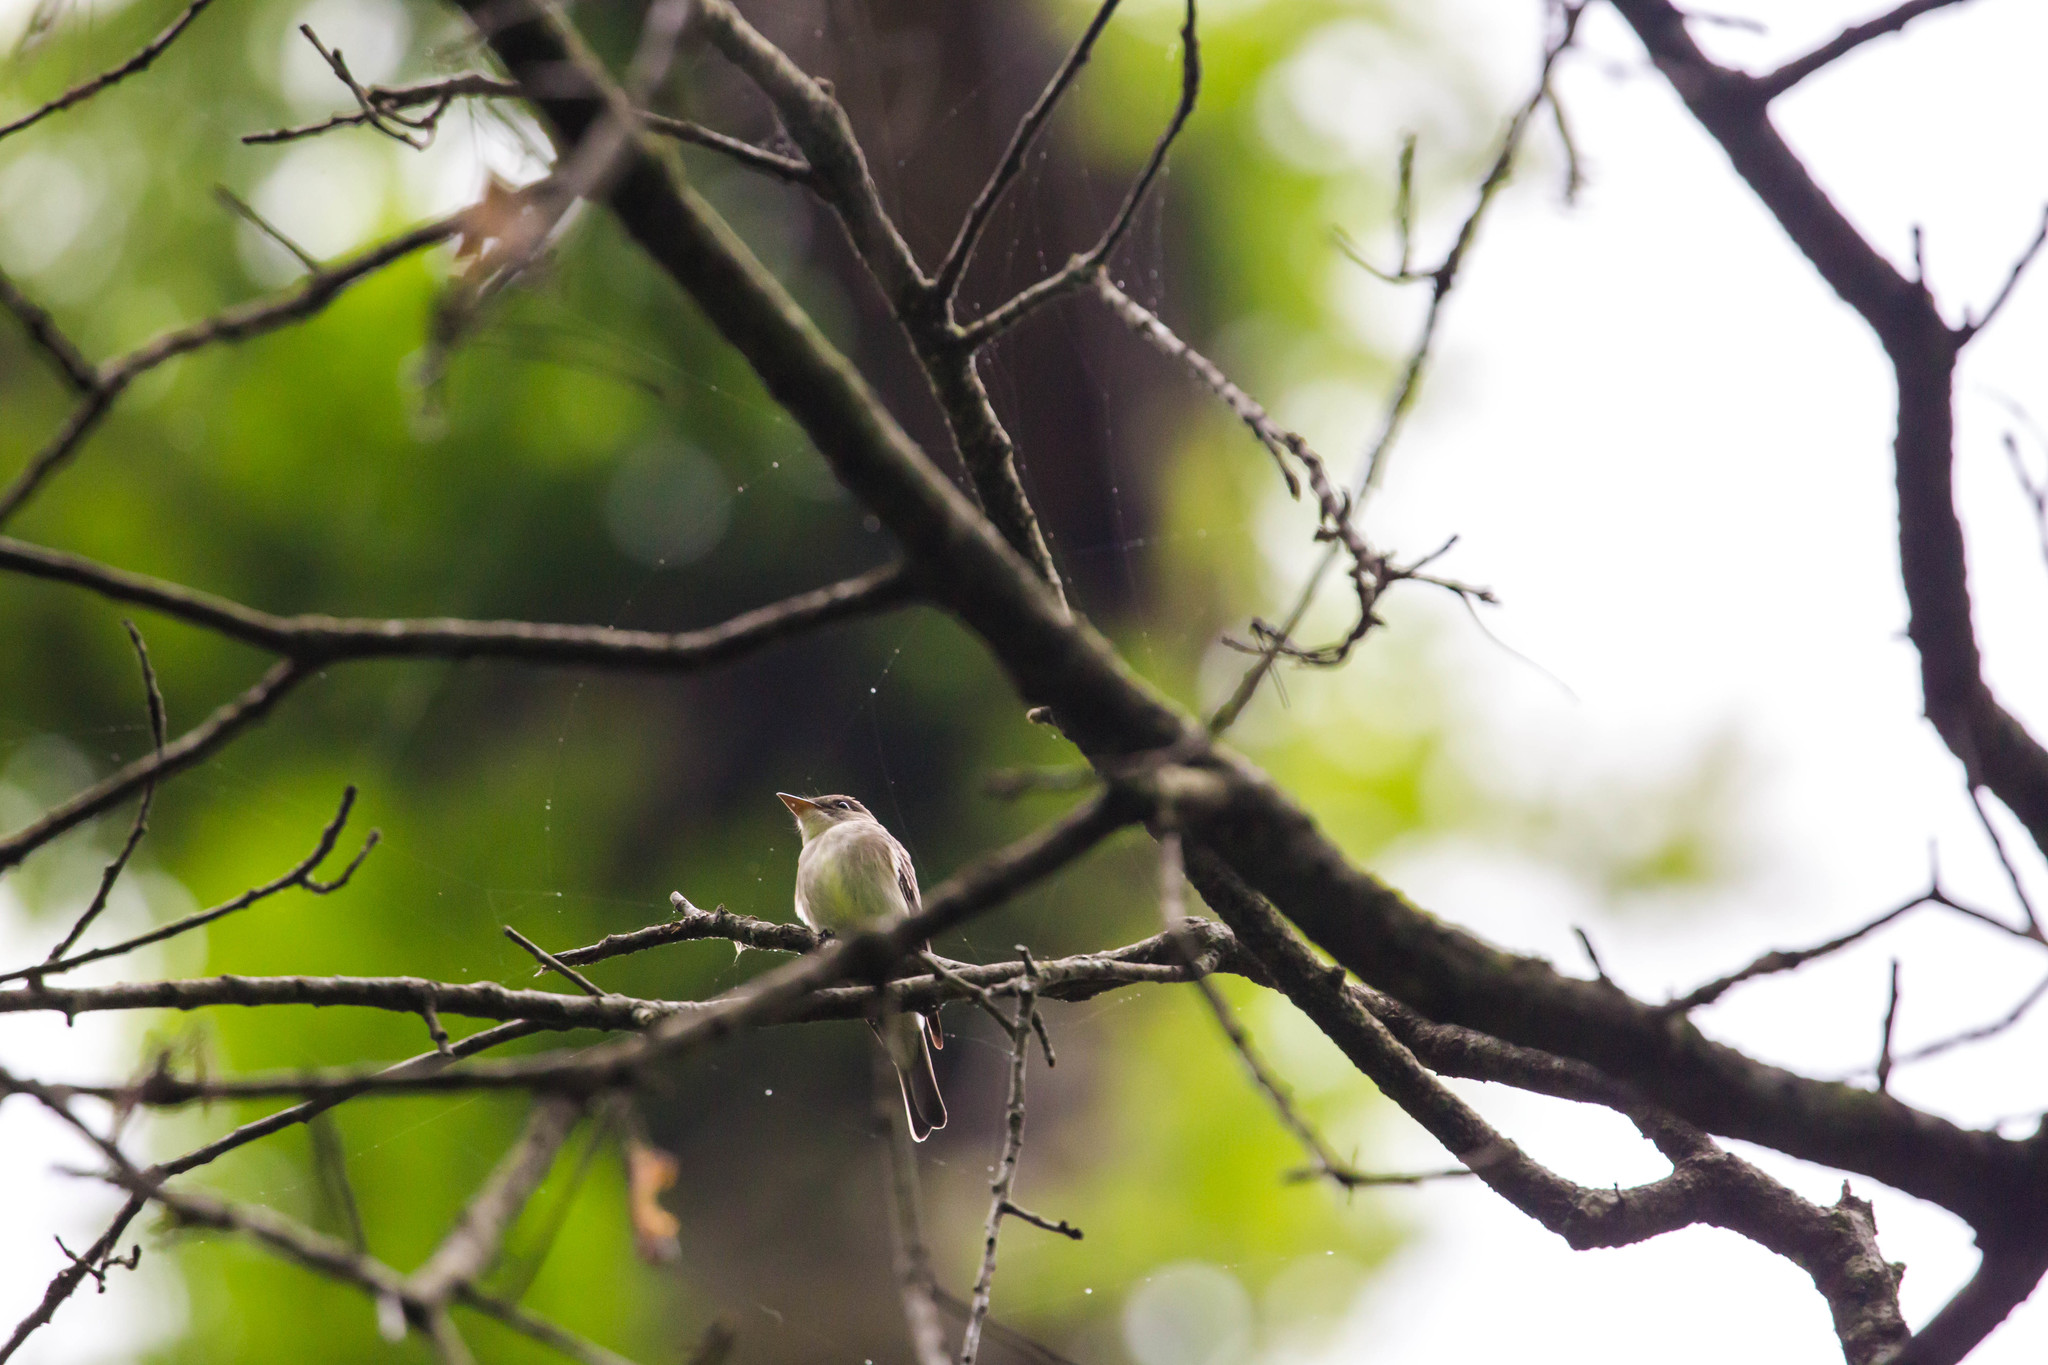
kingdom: Animalia
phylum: Chordata
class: Aves
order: Passeriformes
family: Tyrannidae
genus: Empidonax
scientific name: Empidonax virescens
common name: Acadian flycatcher
